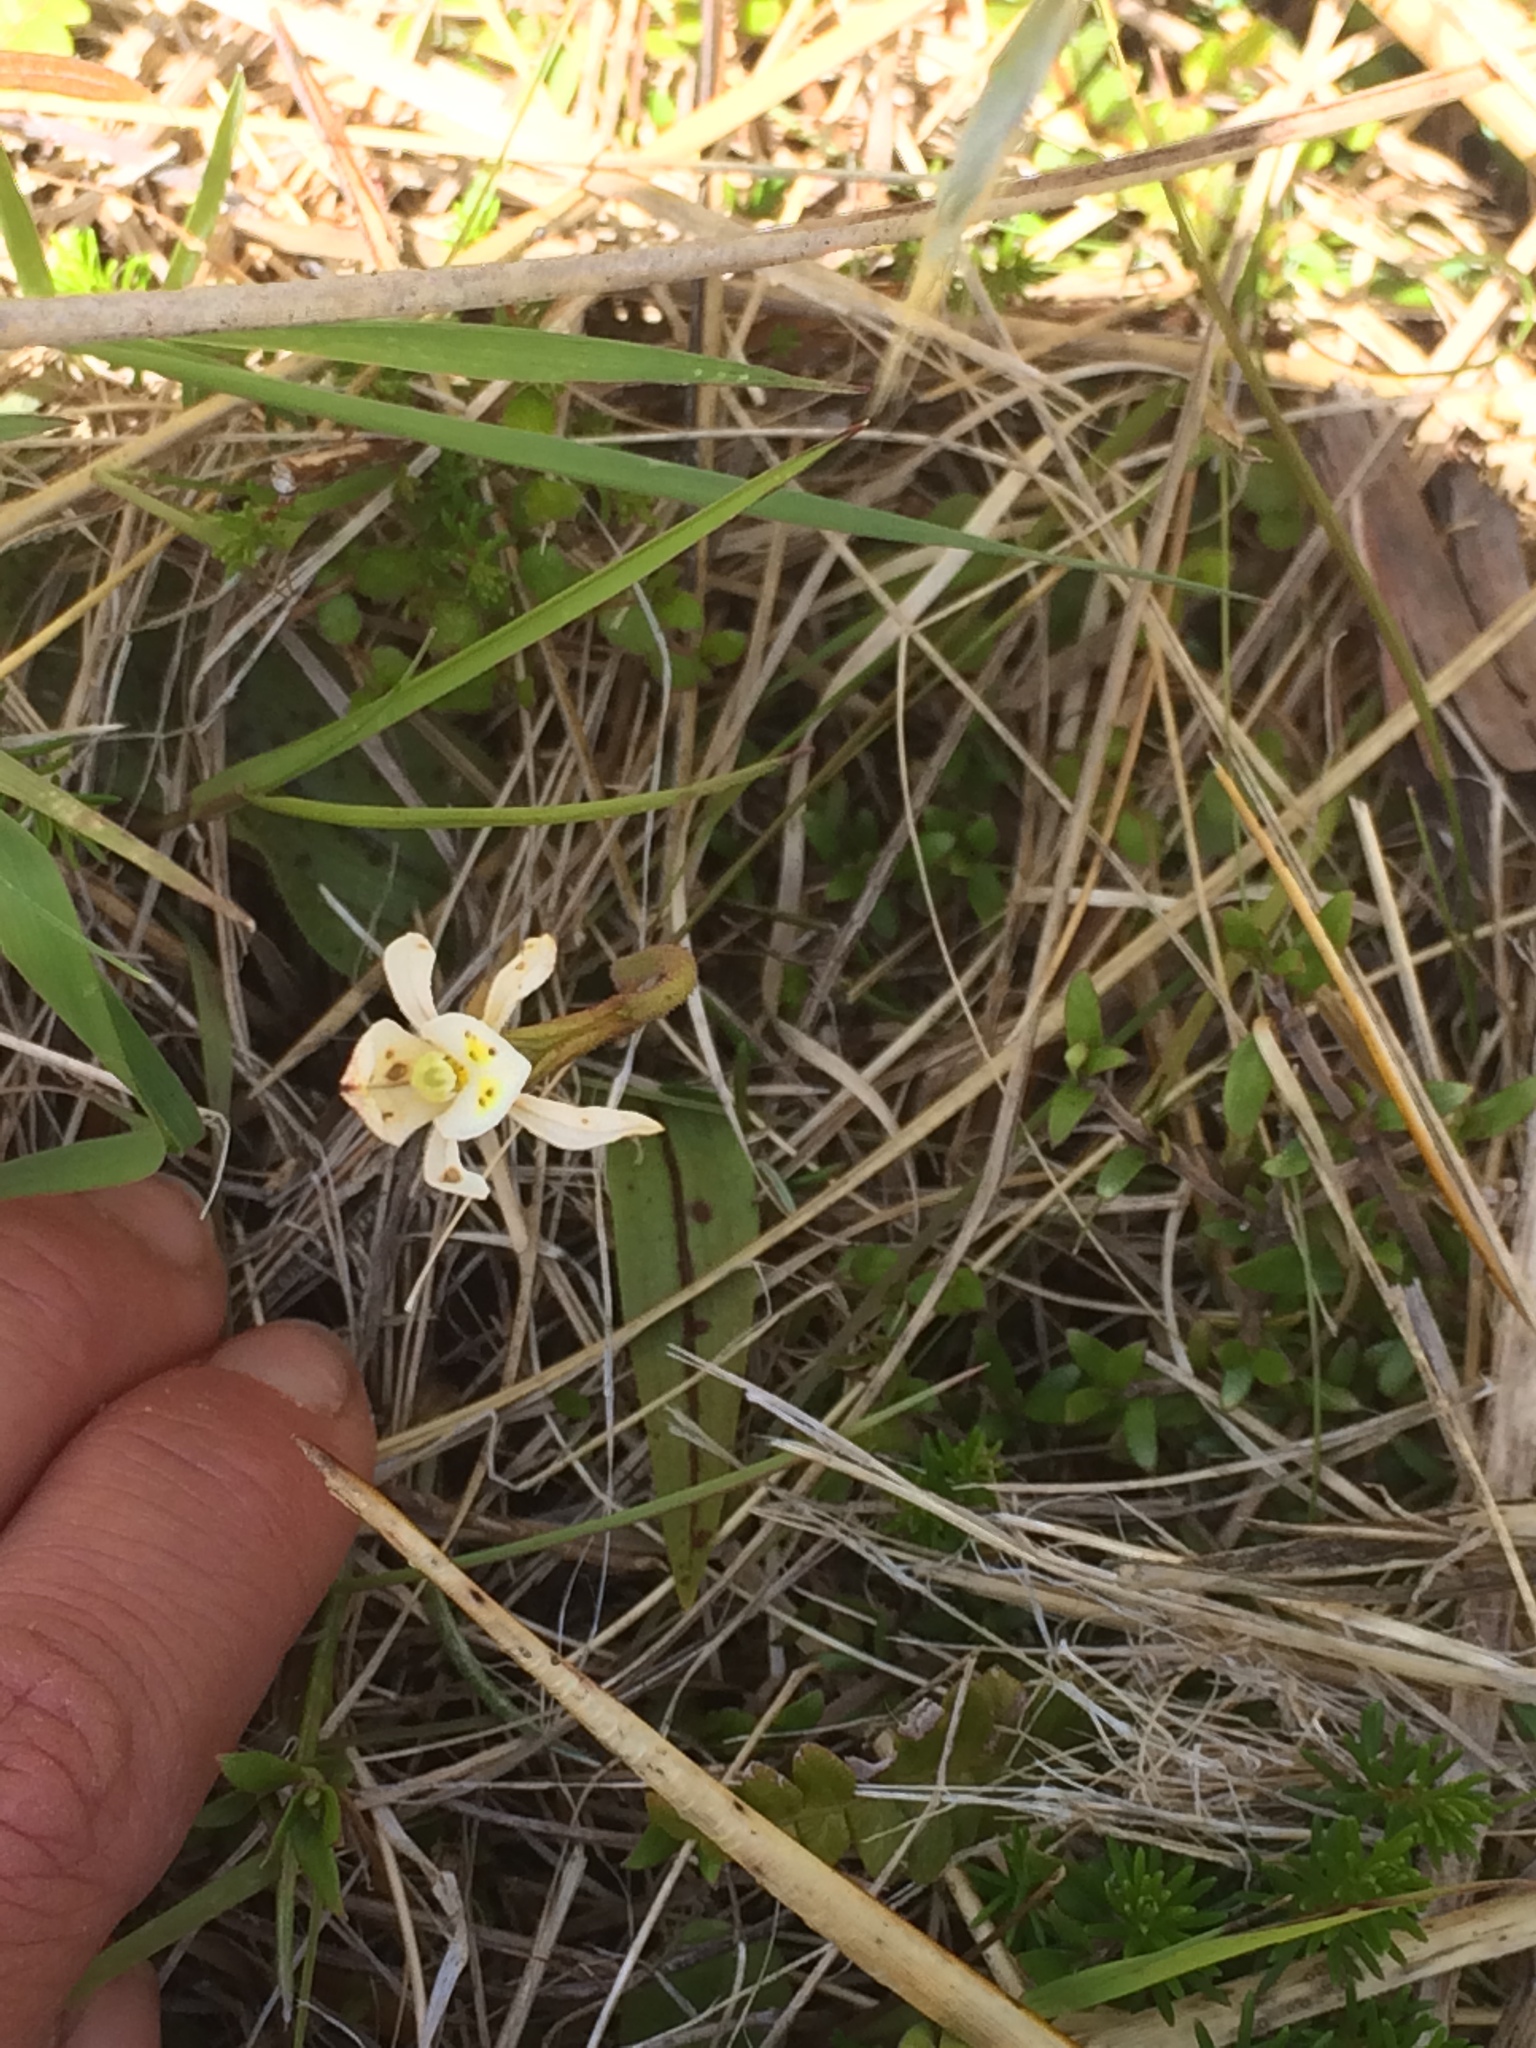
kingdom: Plantae
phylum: Tracheophyta
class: Liliopsida
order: Asparagales
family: Orchidaceae
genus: Aporostylis
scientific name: Aporostylis bifolia
